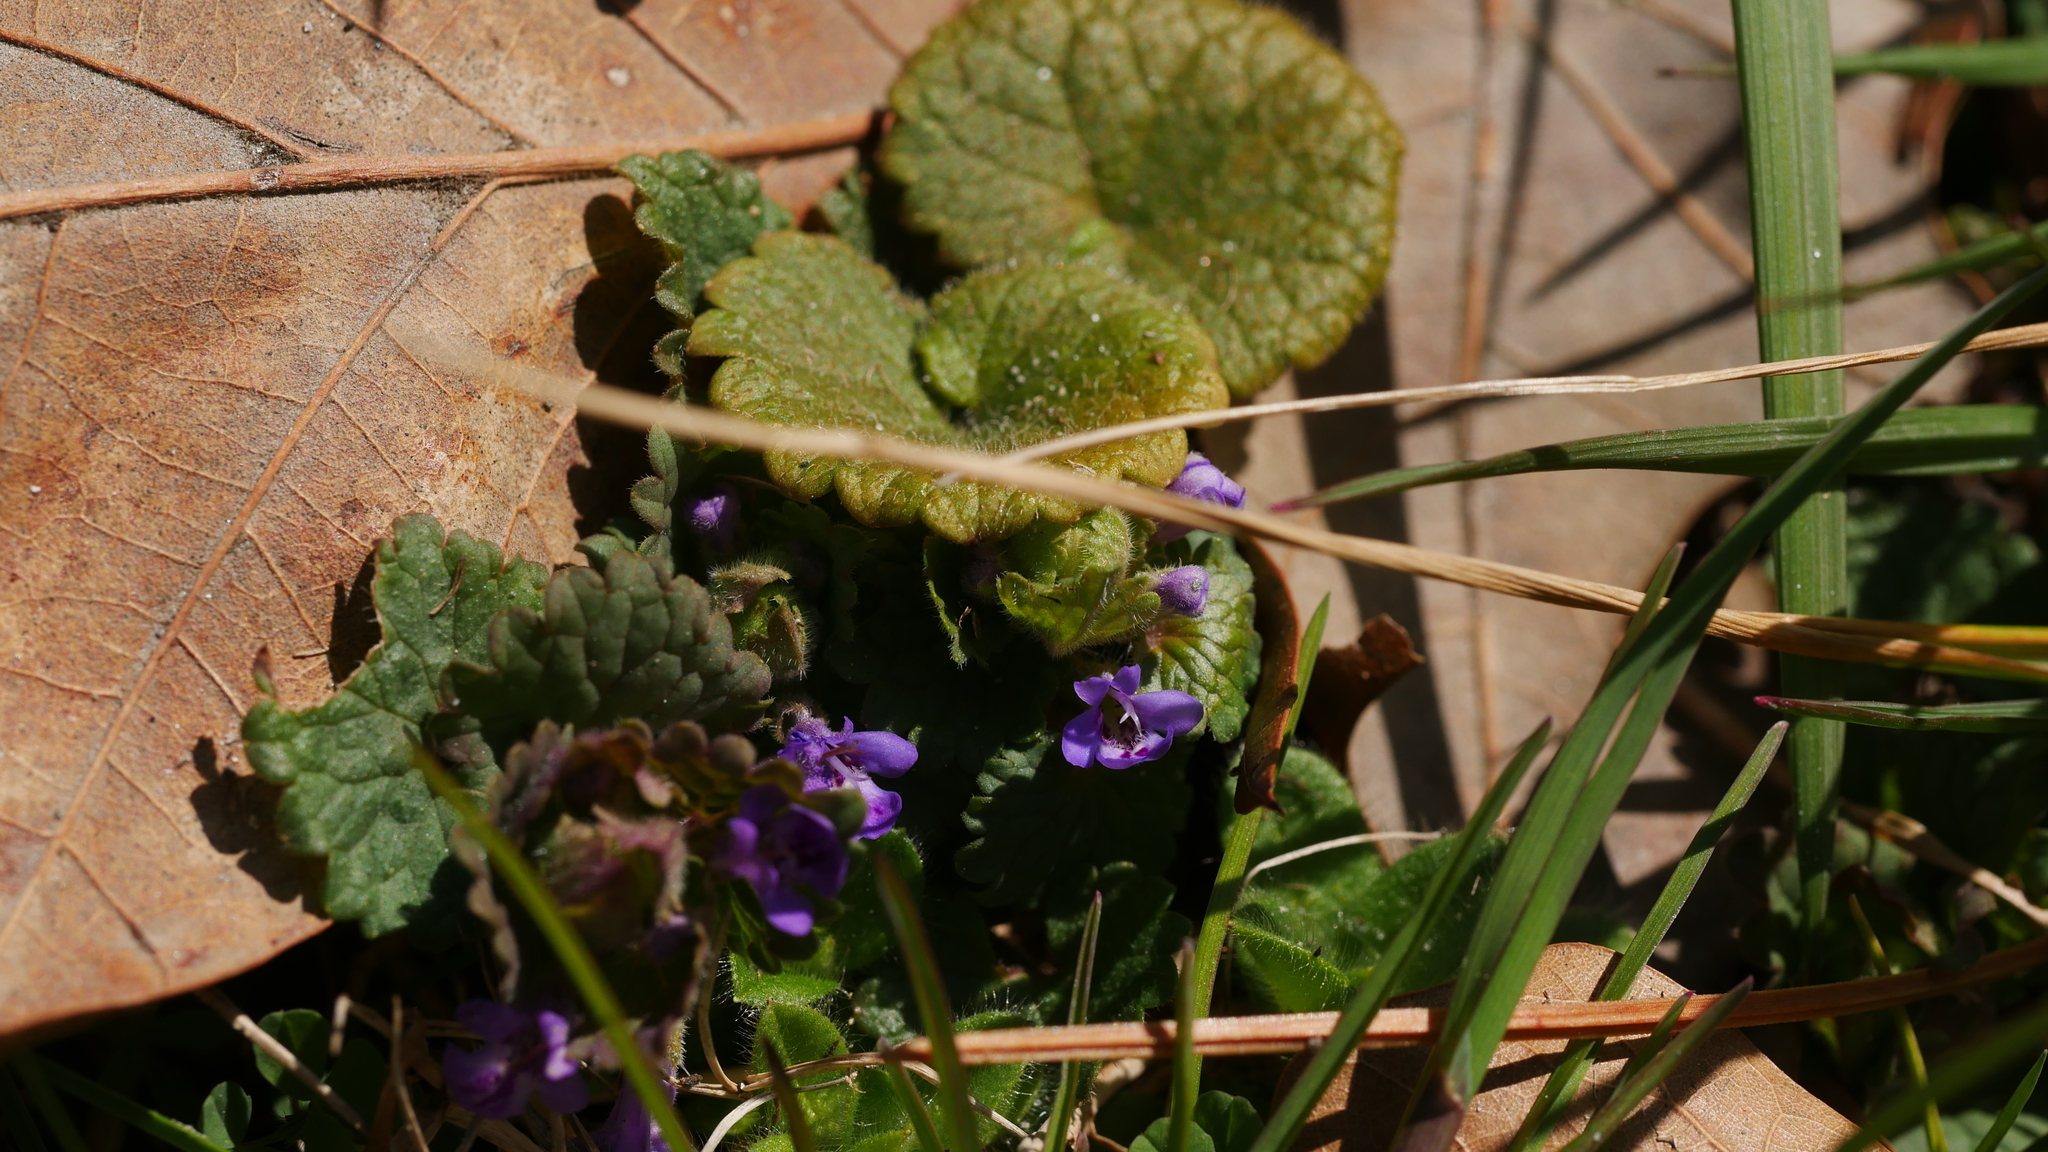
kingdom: Plantae
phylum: Tracheophyta
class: Magnoliopsida
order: Lamiales
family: Lamiaceae
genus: Glechoma
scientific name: Glechoma hederacea
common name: Ground ivy
